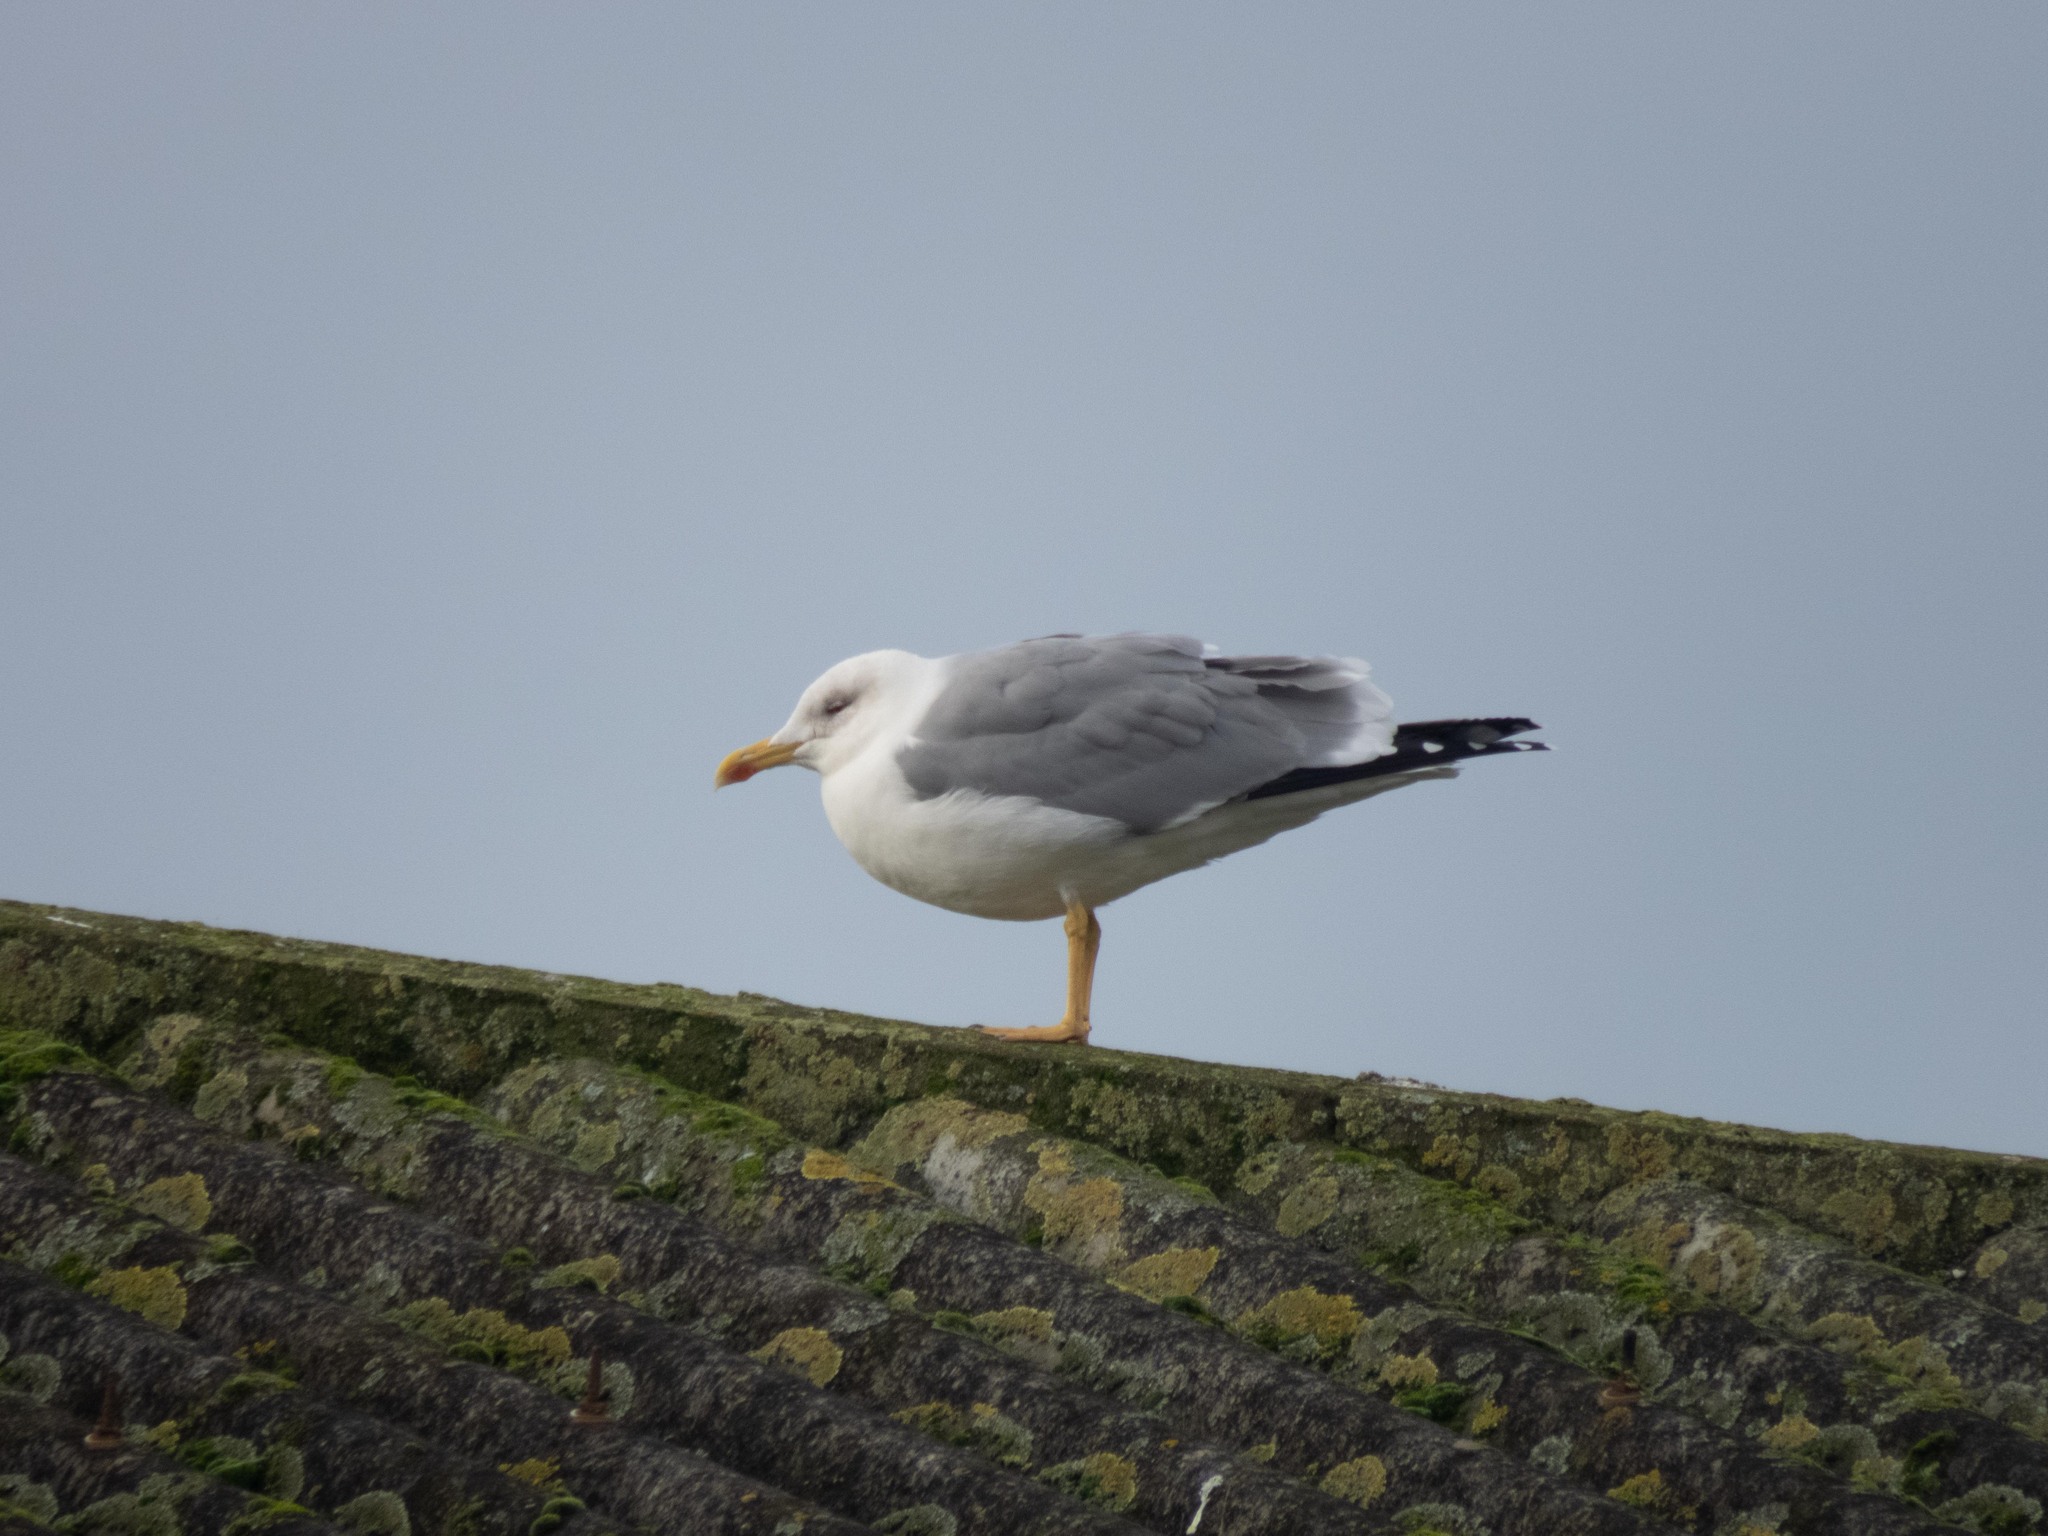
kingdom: Animalia
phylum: Chordata
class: Aves
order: Charadriiformes
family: Laridae
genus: Larus
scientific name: Larus michahellis
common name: Yellow-legged gull
